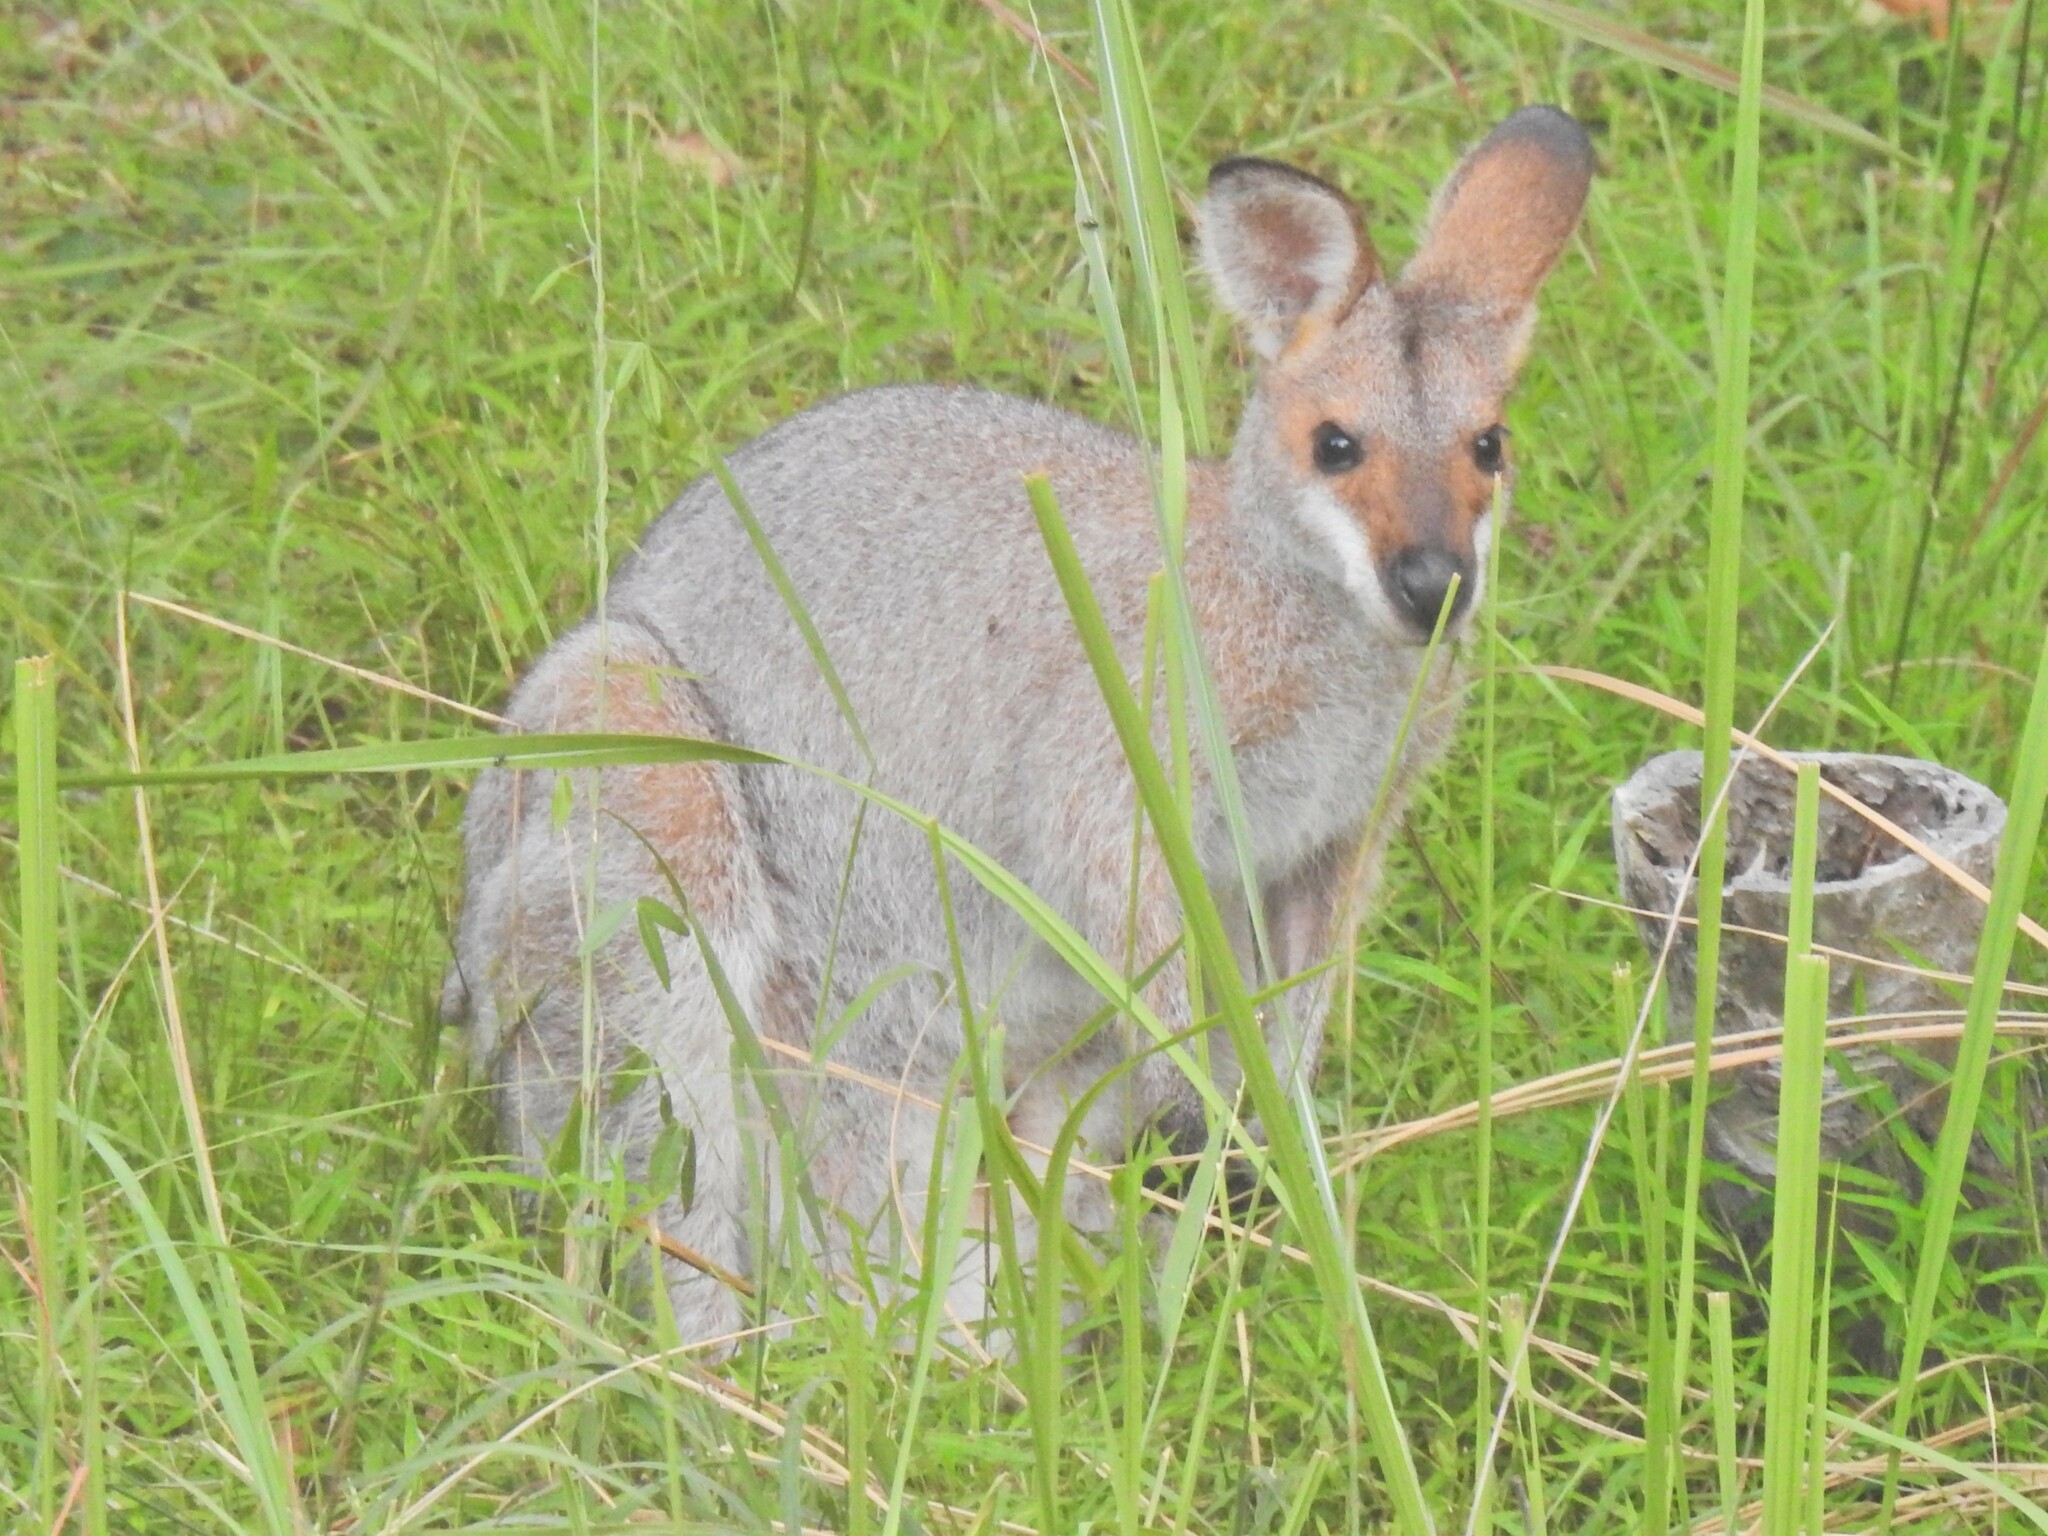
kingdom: Animalia
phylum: Chordata
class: Mammalia
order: Diprotodontia
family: Macropodidae
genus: Notamacropus
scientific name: Notamacropus rufogriseus
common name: Red-necked wallaby
